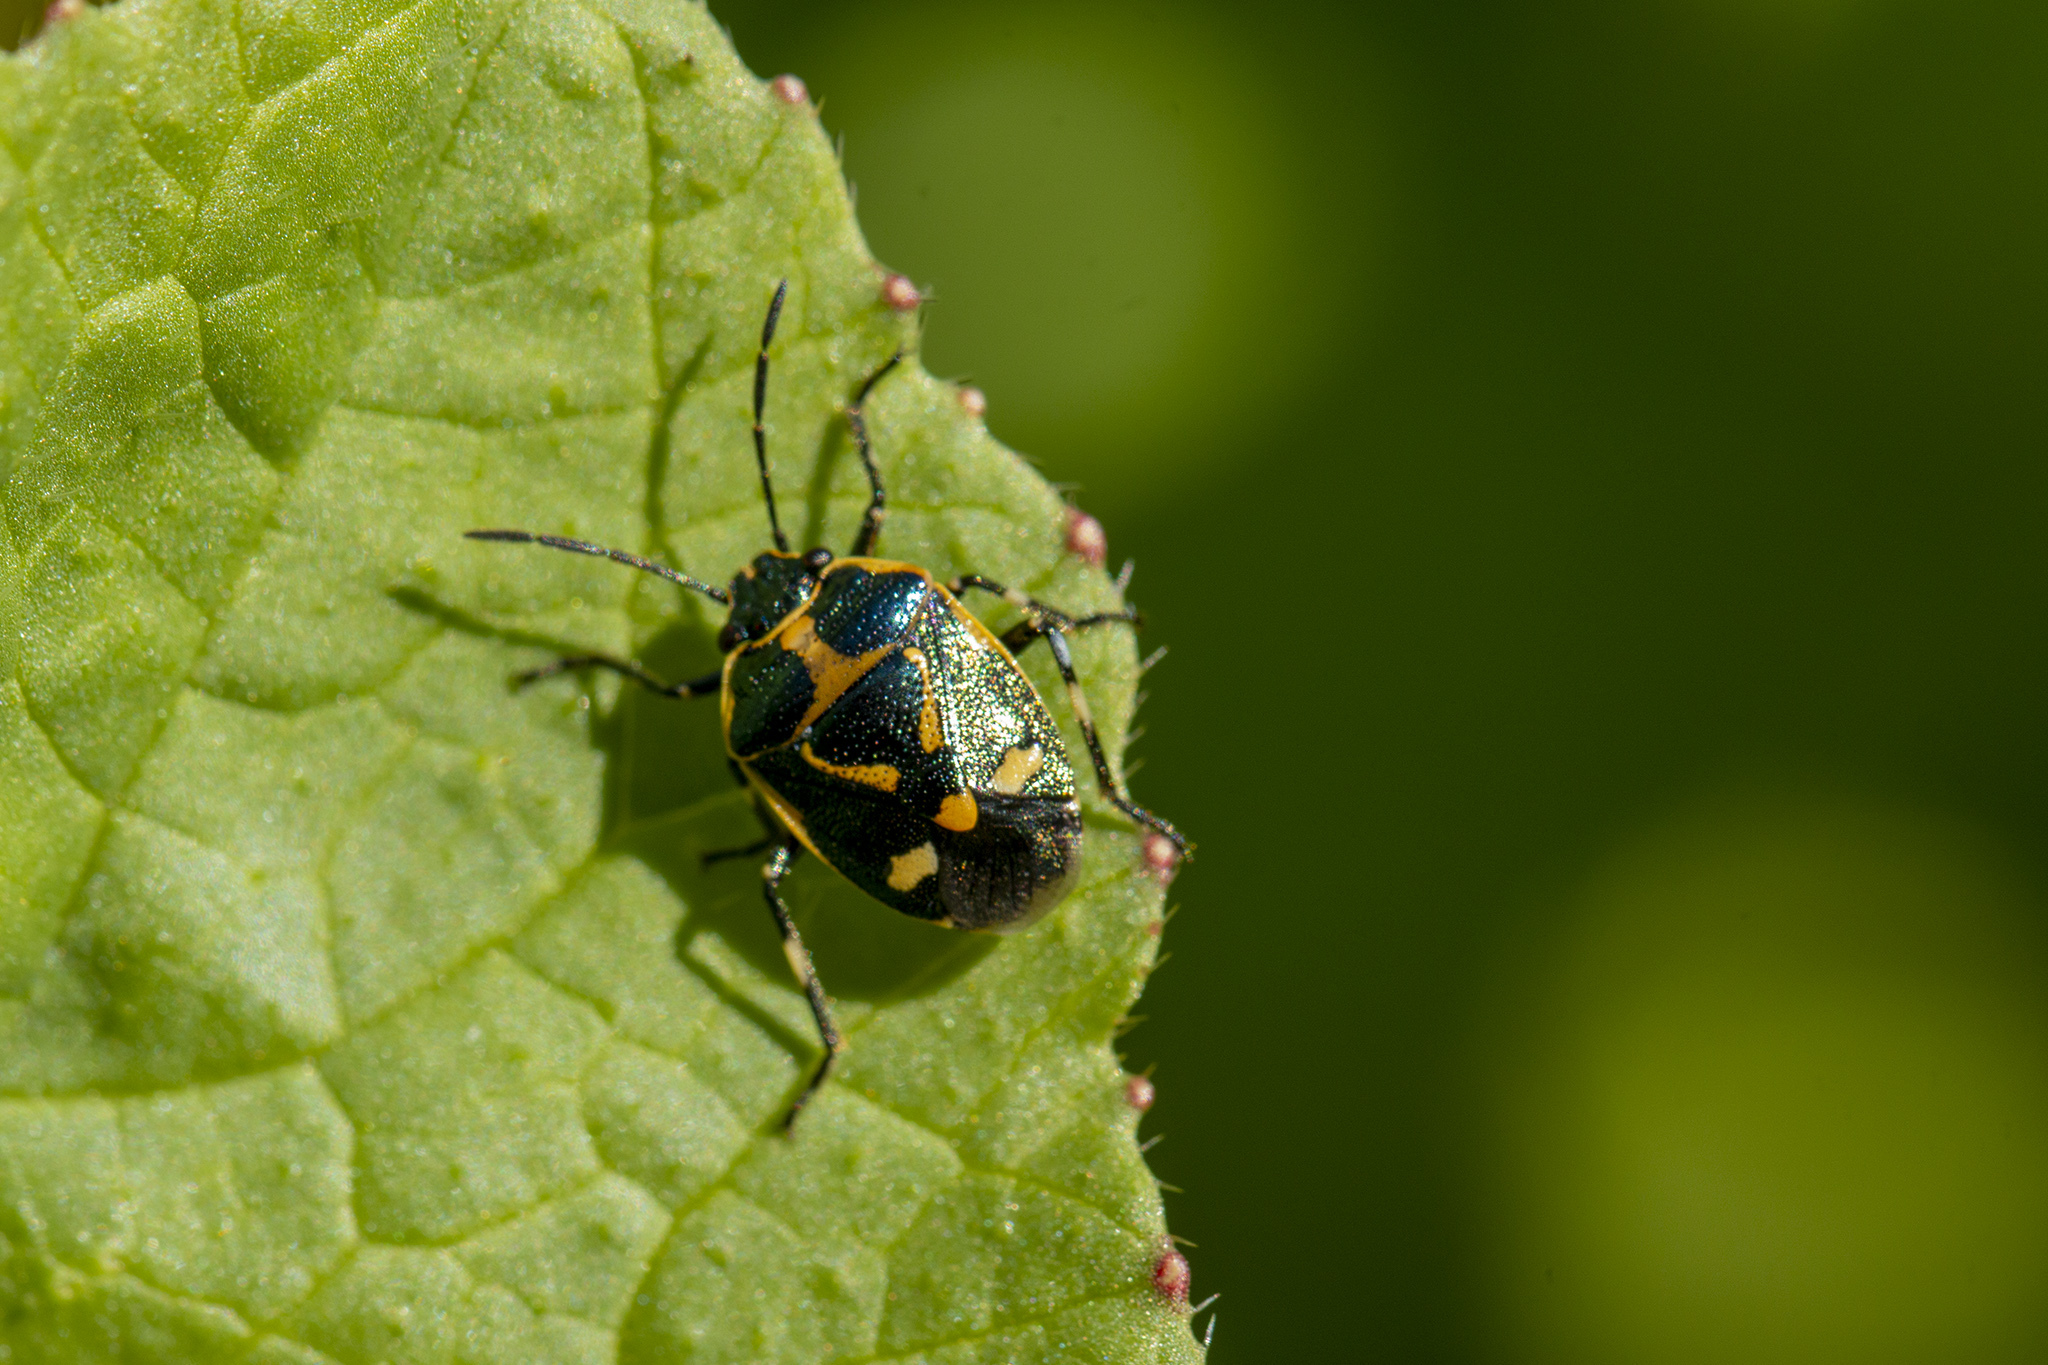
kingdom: Animalia
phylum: Arthropoda
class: Insecta
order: Hemiptera
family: Pentatomidae
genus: Eurydema
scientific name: Eurydema oleracea
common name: Cabbage bug
